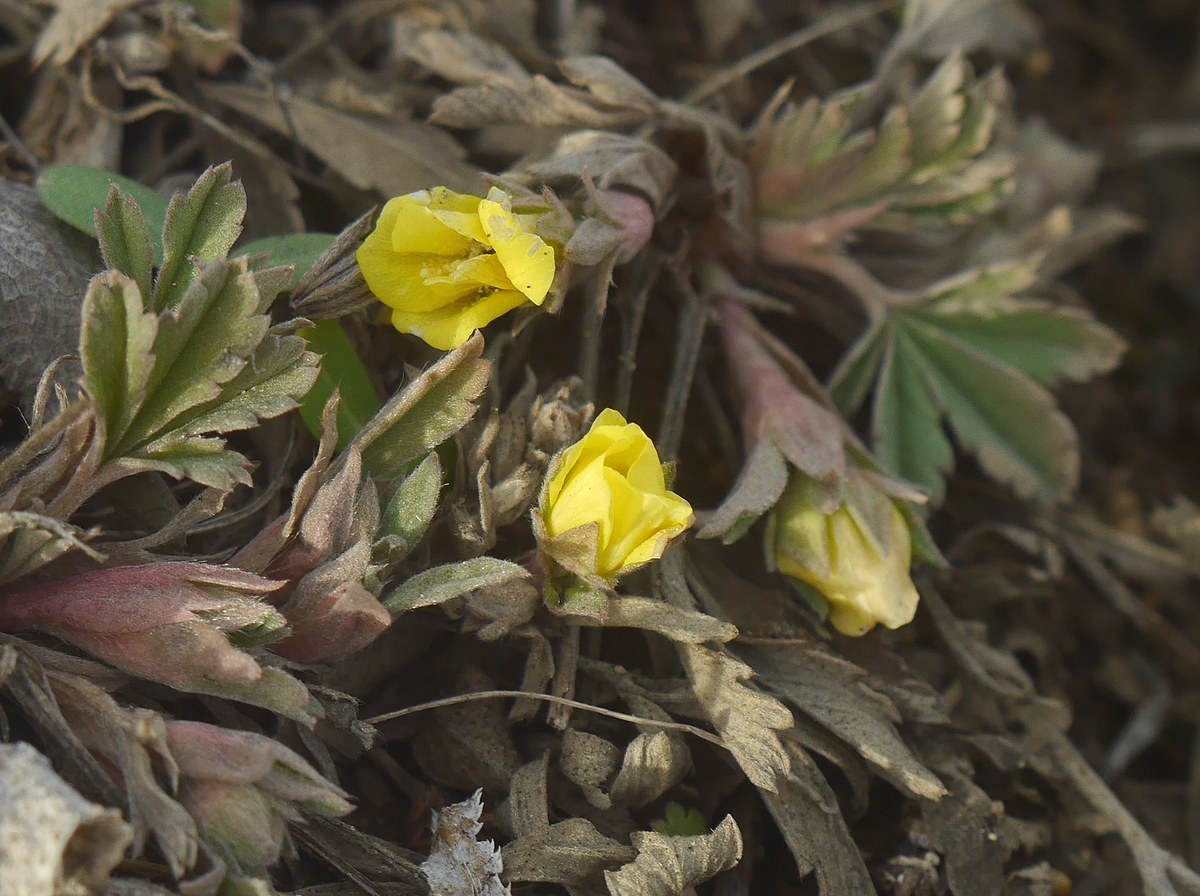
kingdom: Plantae
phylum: Tracheophyta
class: Magnoliopsida
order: Rosales
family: Rosaceae
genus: Potentilla
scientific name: Potentilla incana
